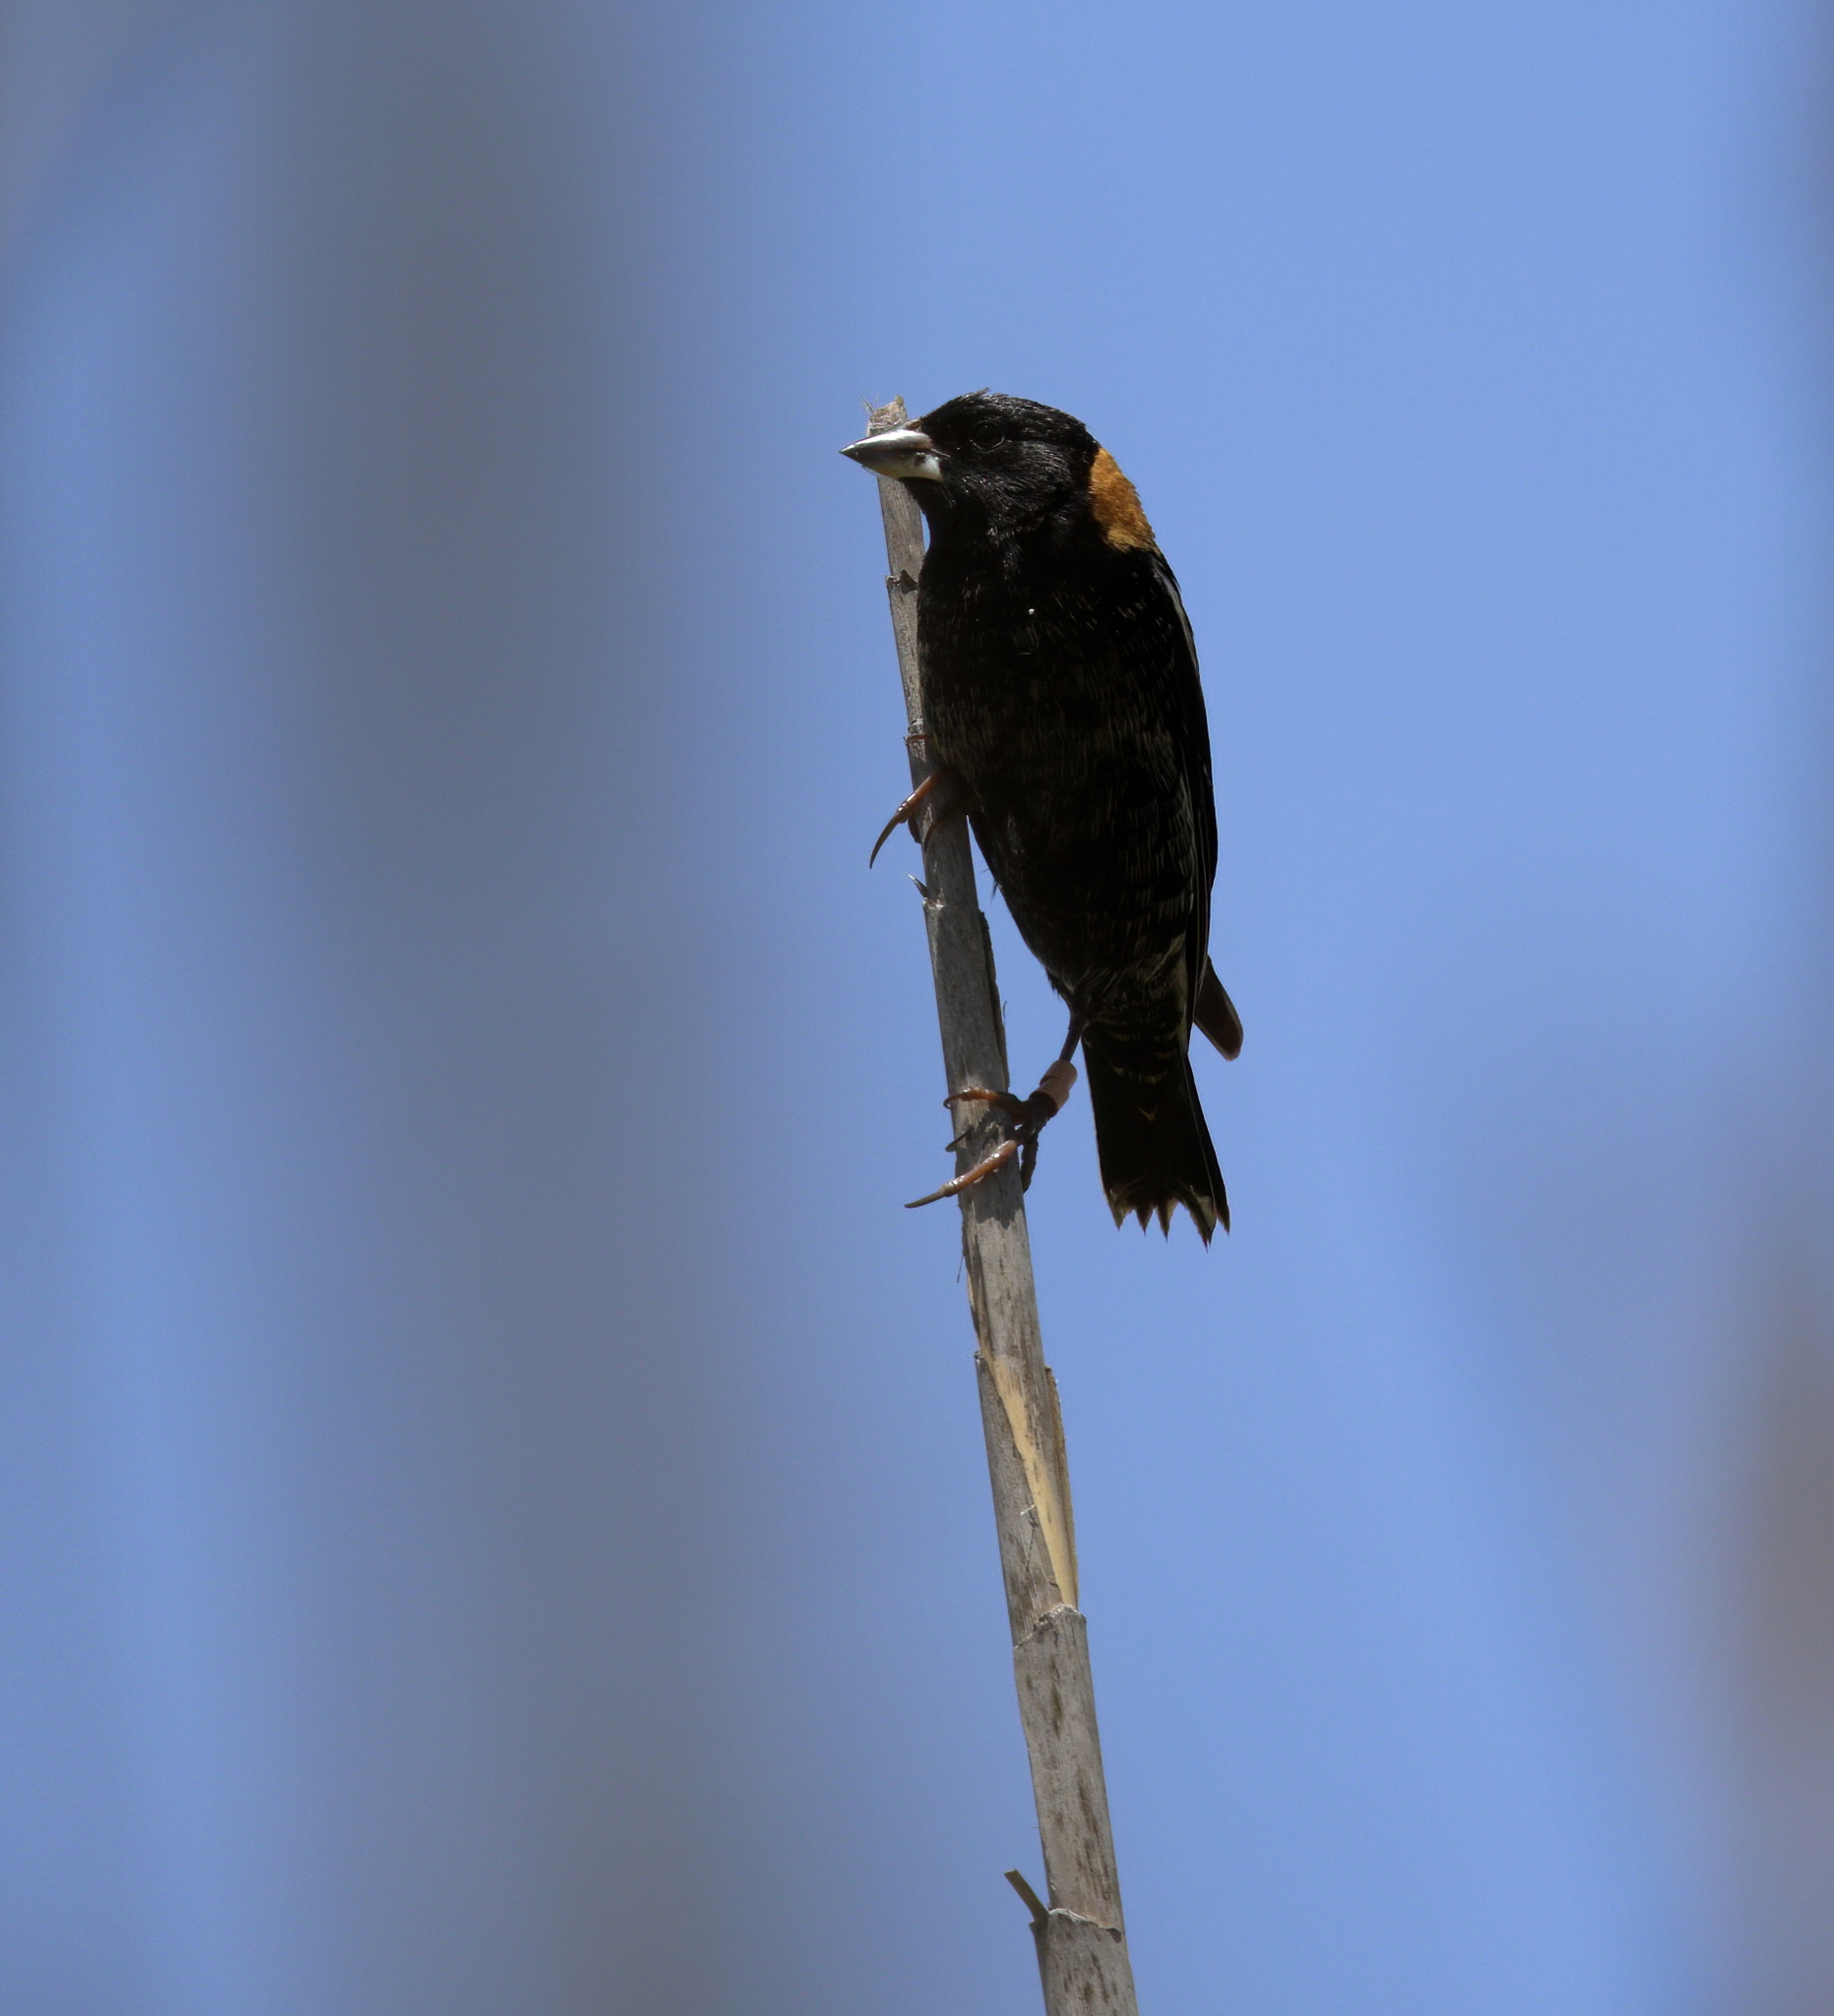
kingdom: Animalia
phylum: Chordata
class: Aves
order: Passeriformes
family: Icteridae
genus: Dolichonyx
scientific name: Dolichonyx oryzivorus
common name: Bobolink
